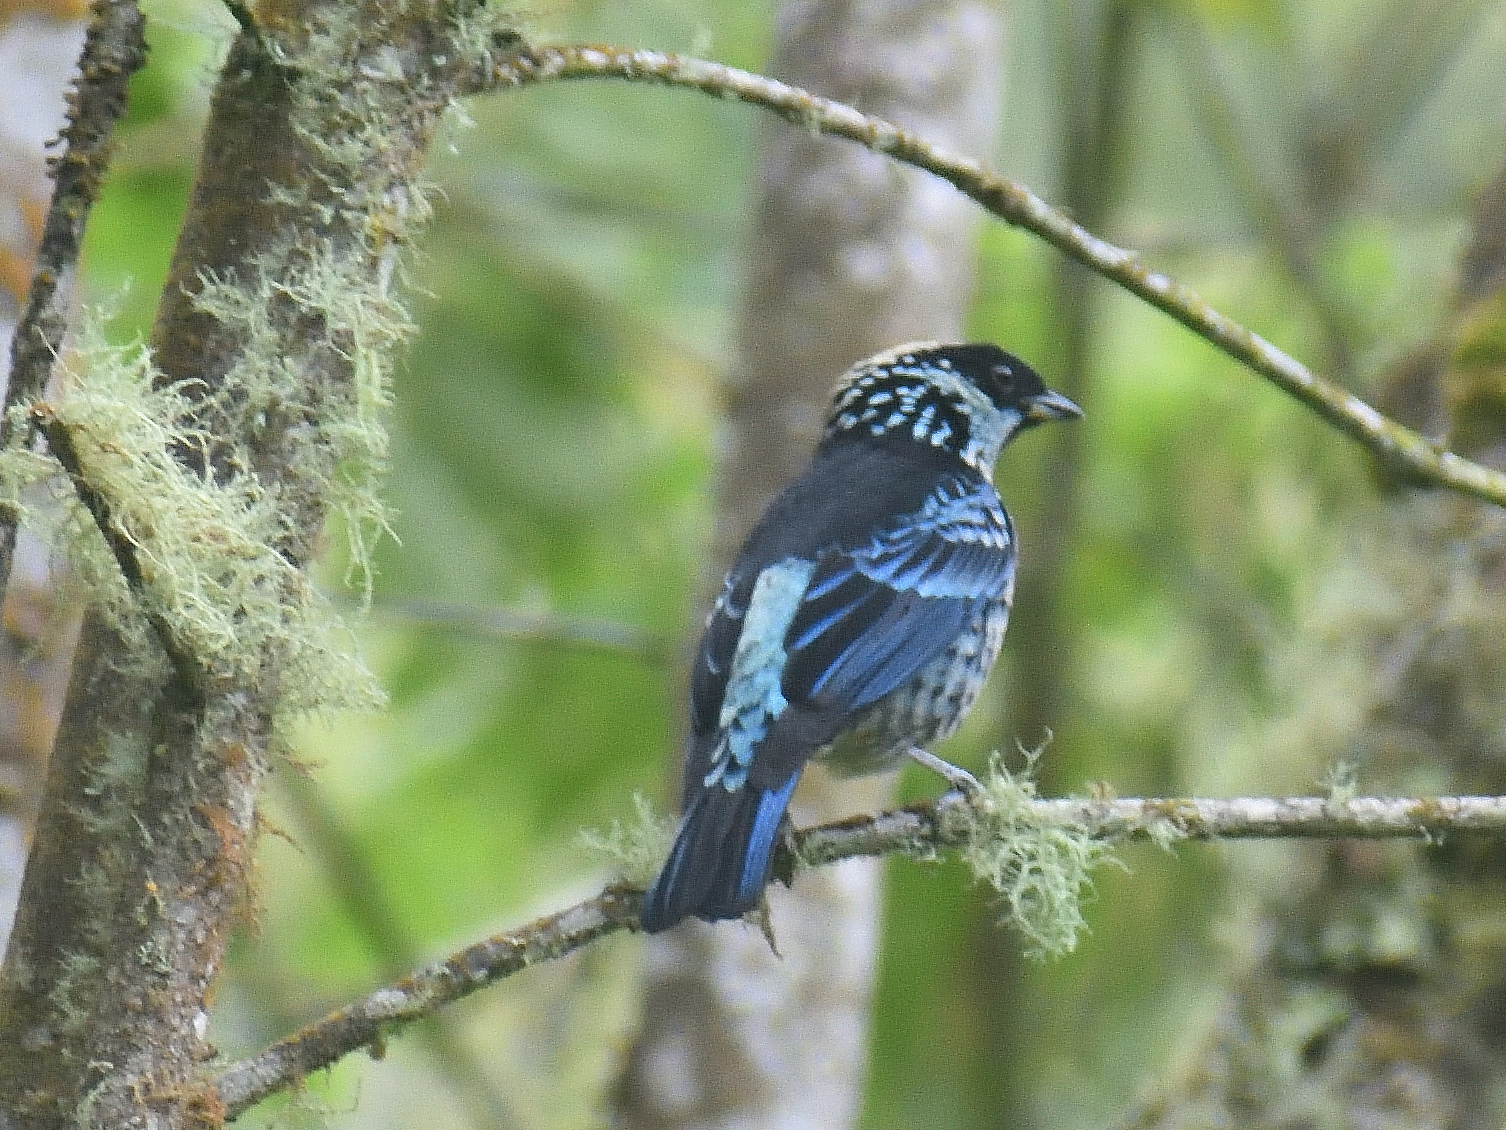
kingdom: Animalia
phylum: Chordata
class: Aves
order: Passeriformes
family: Thraupidae
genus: Tangara
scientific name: Tangara nigroviridis
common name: Beryl-spangled tanager
